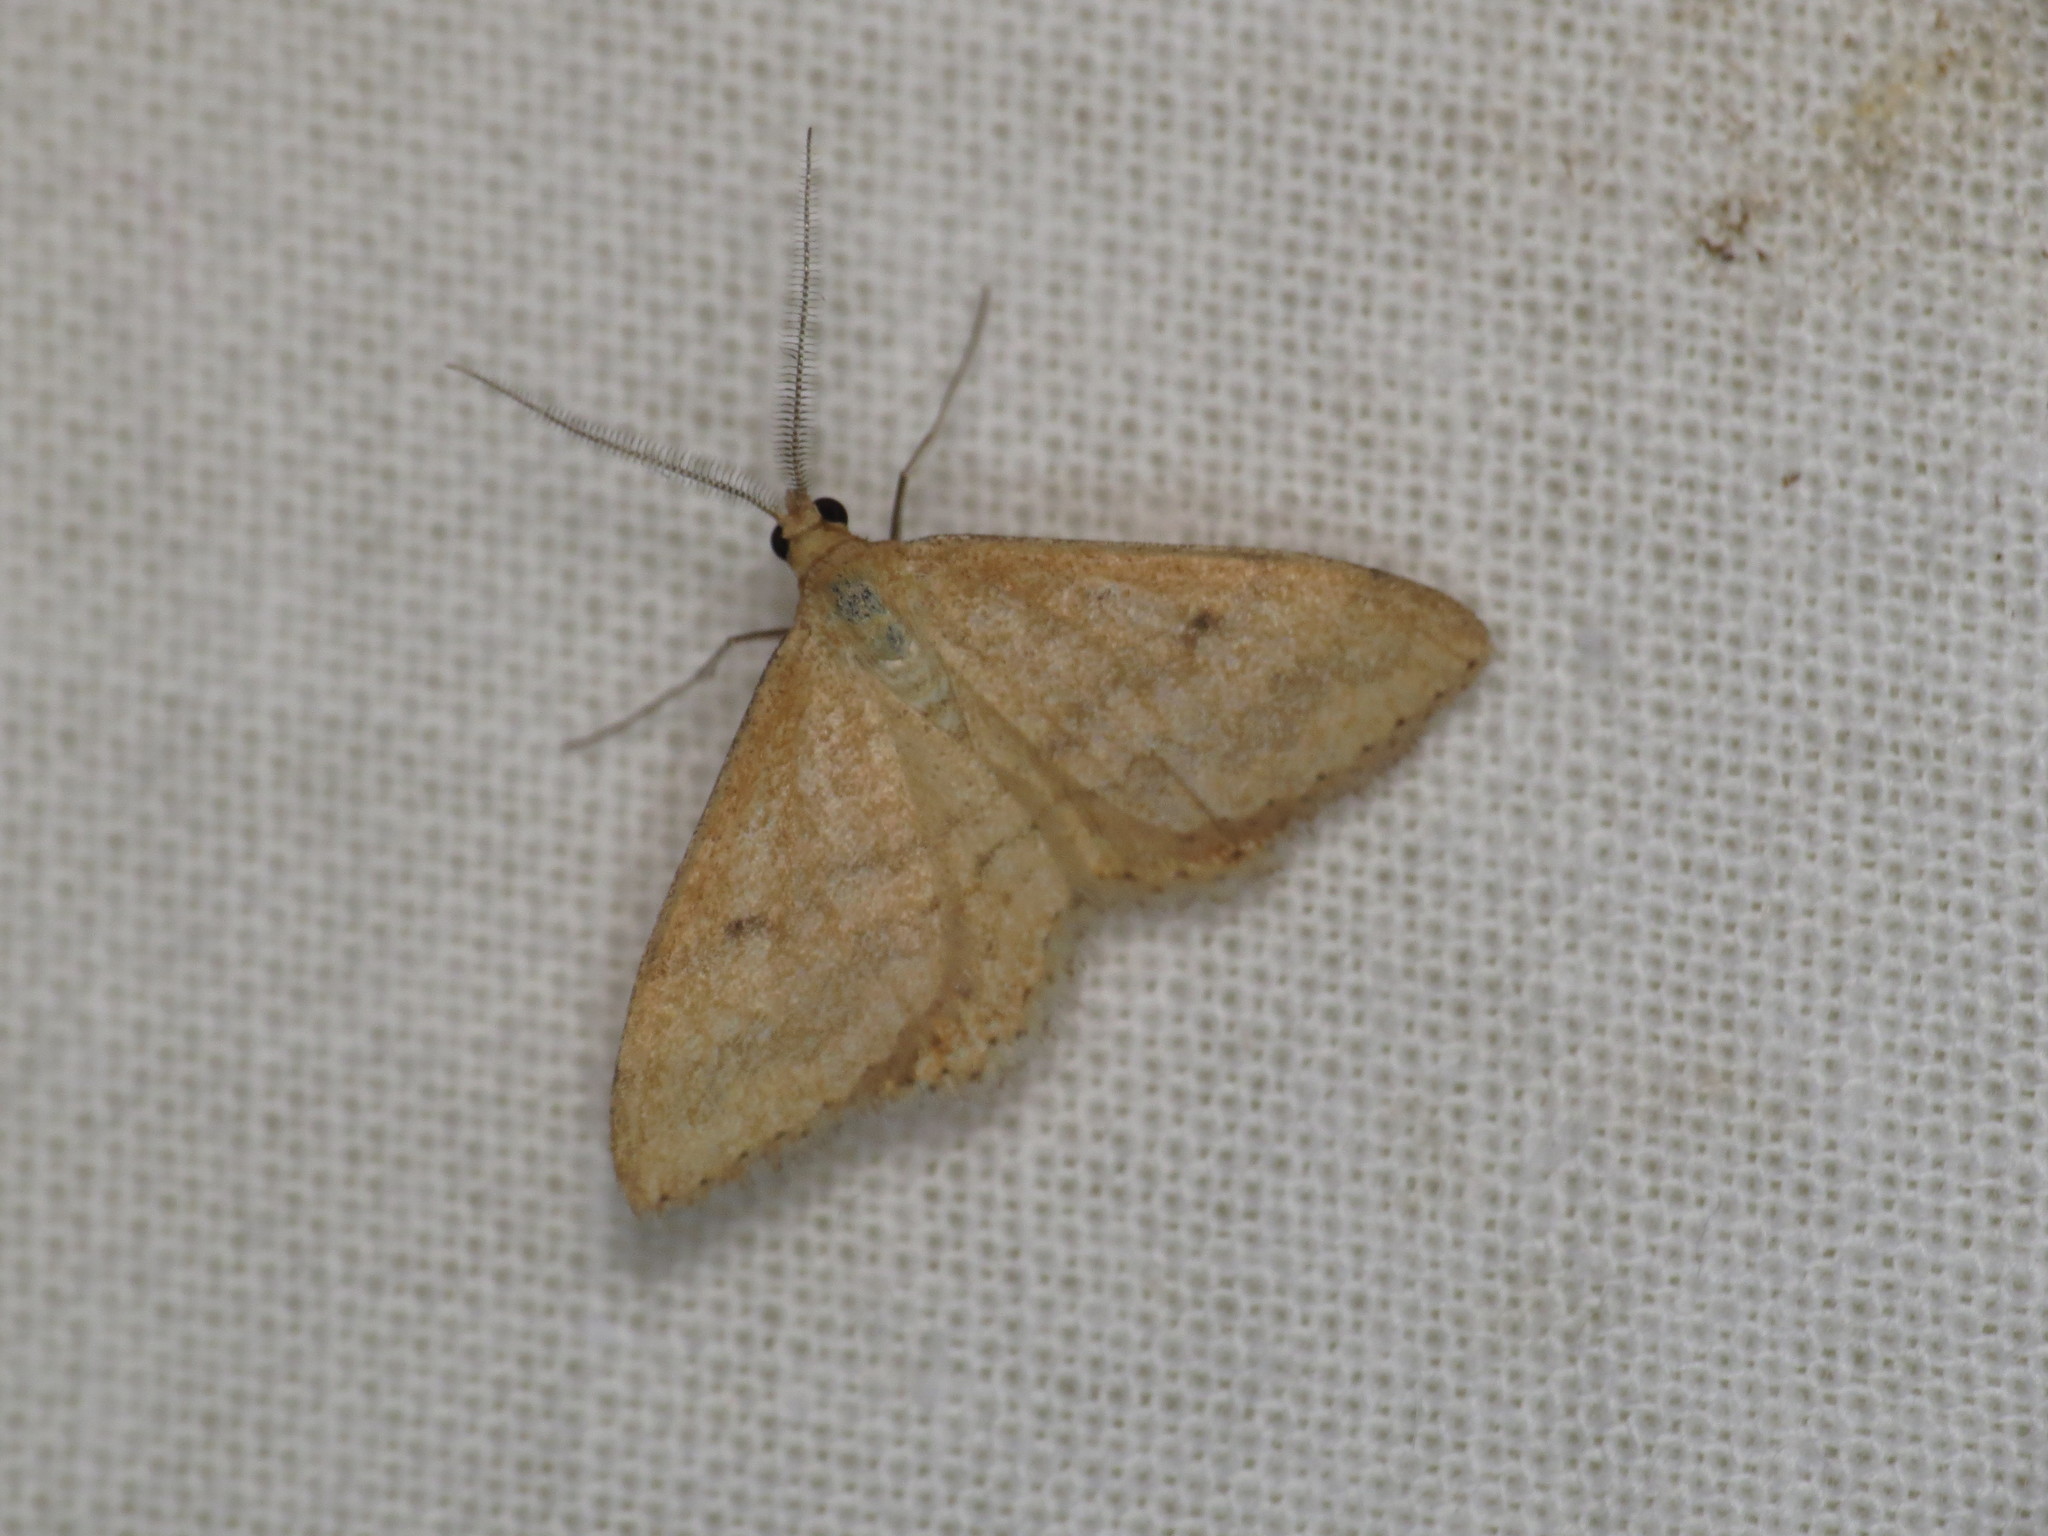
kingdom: Animalia
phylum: Arthropoda
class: Insecta
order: Lepidoptera
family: Geometridae
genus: Scopula
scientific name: Scopula rubraria
